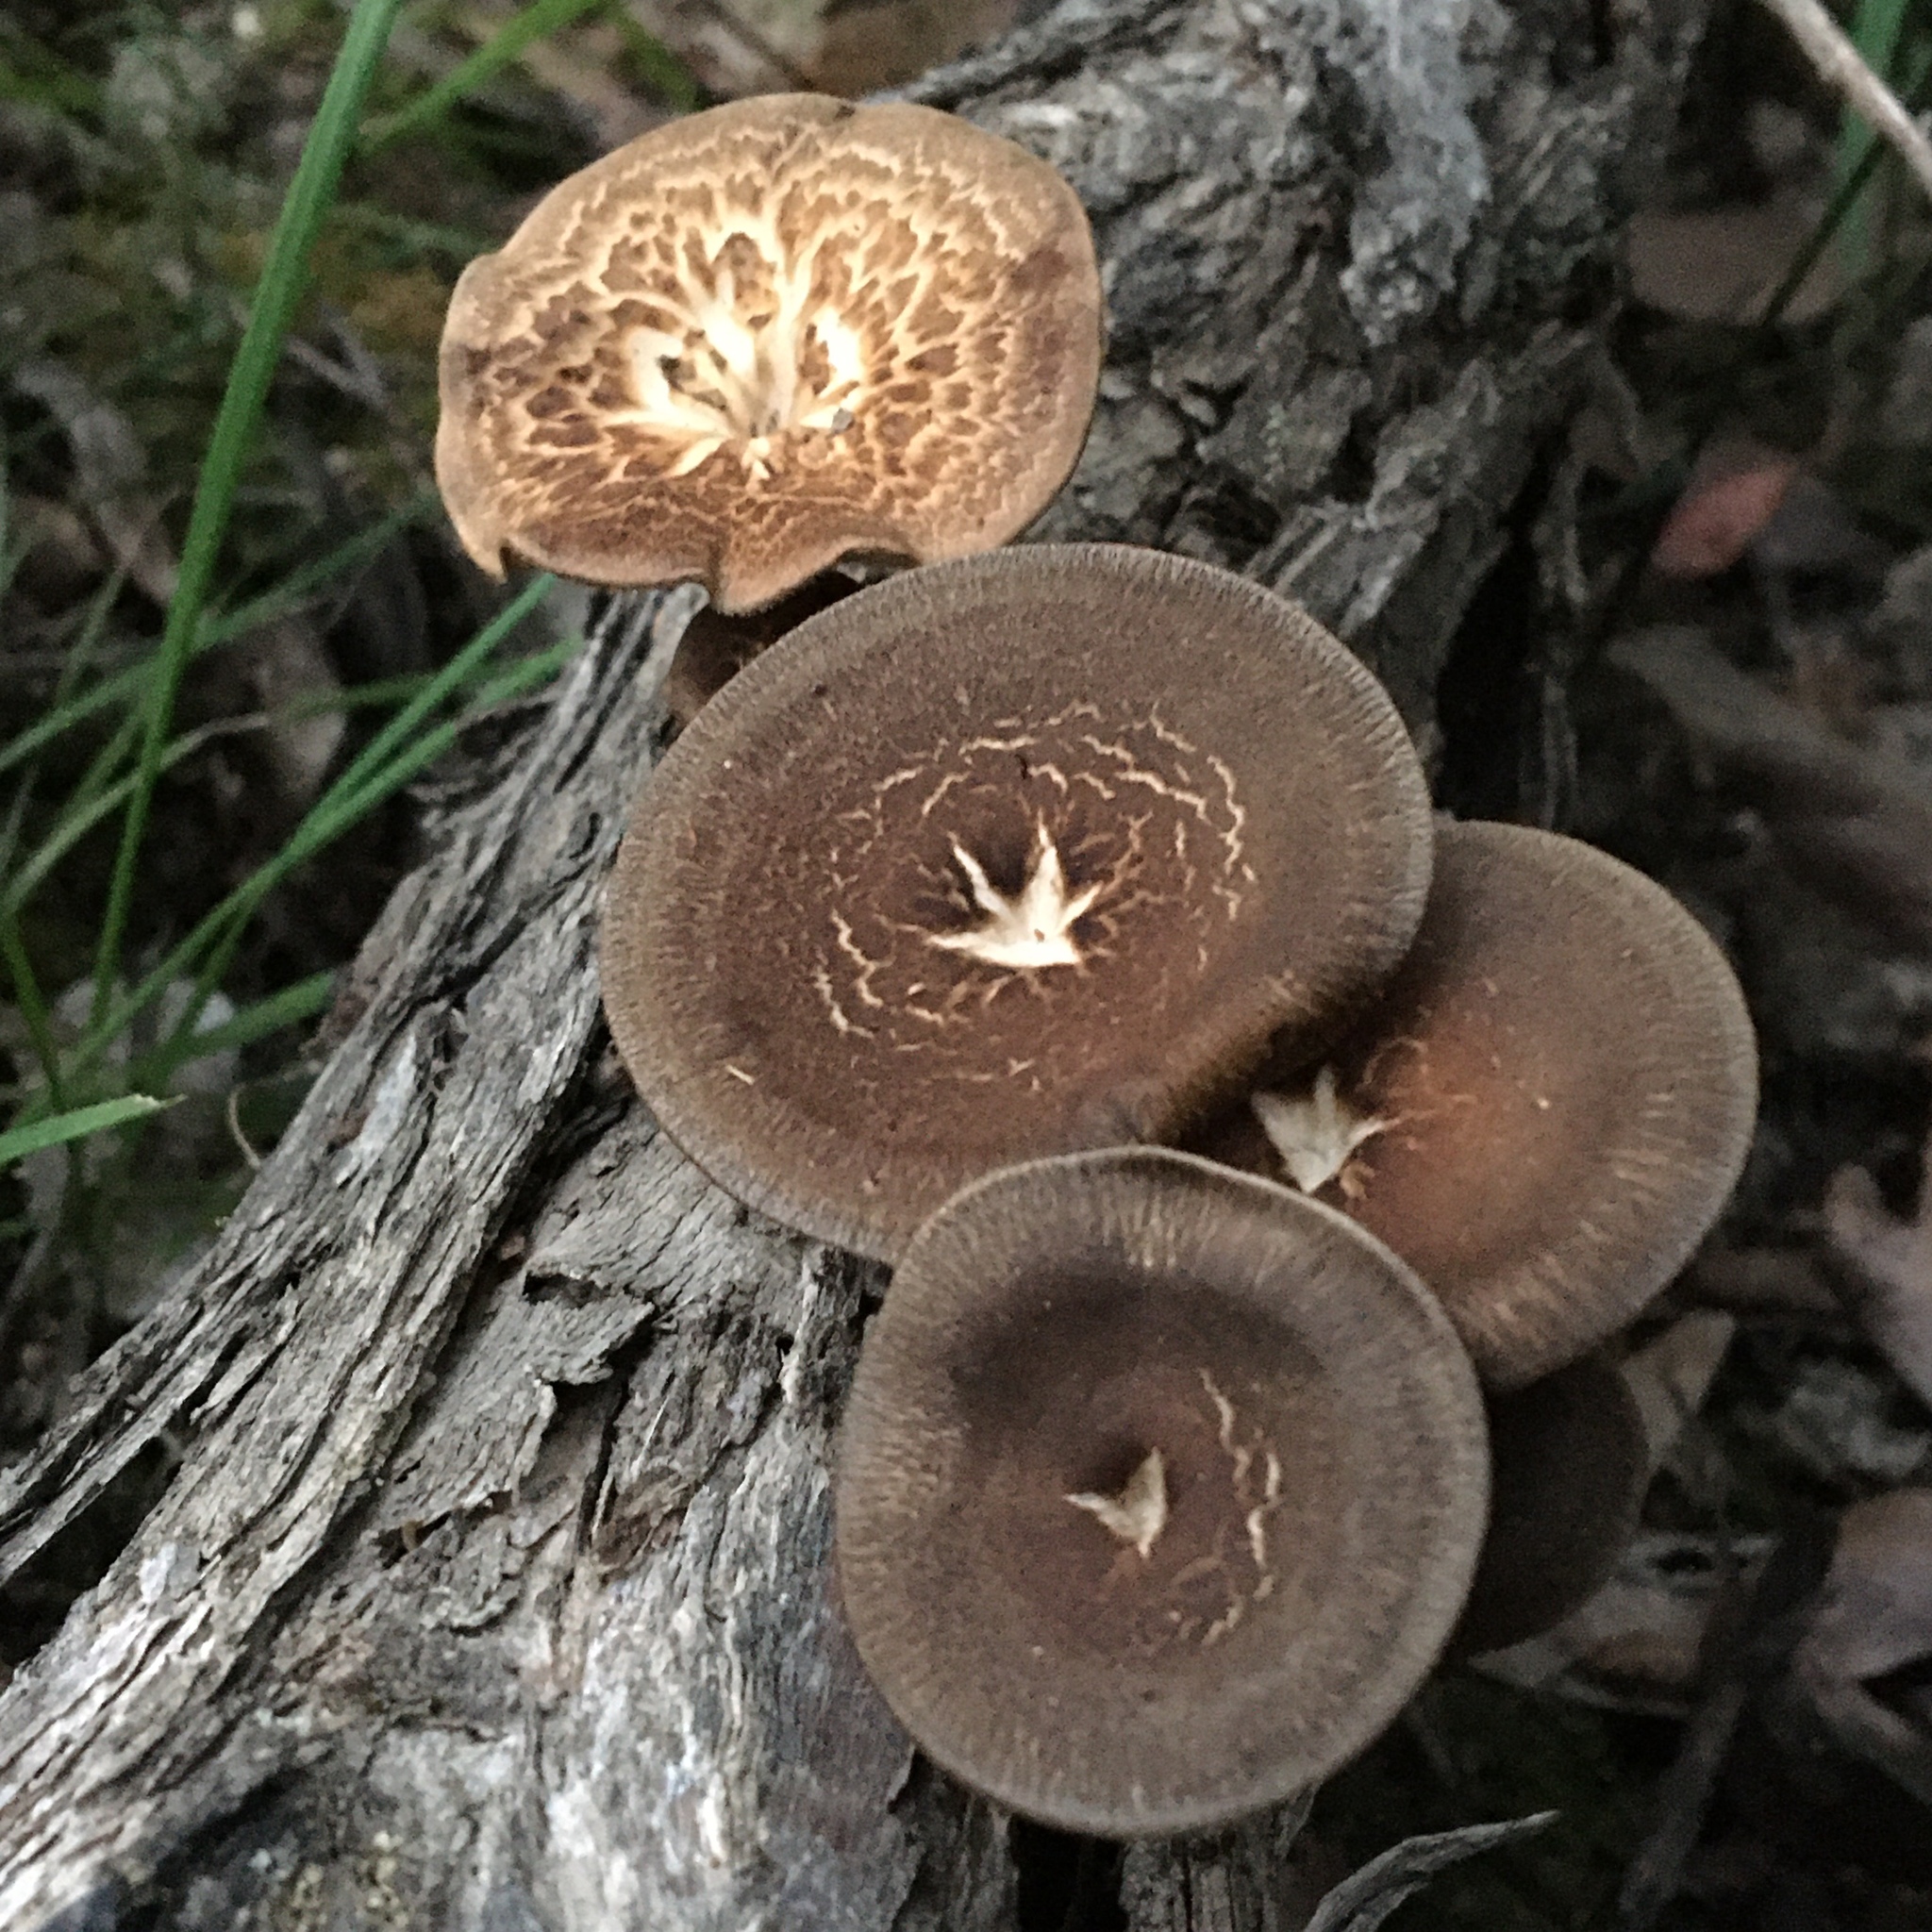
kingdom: Fungi
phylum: Basidiomycota
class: Agaricomycetes
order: Polyporales
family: Polyporaceae
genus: Lentinus
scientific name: Lentinus arcularius
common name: Spring polypore
